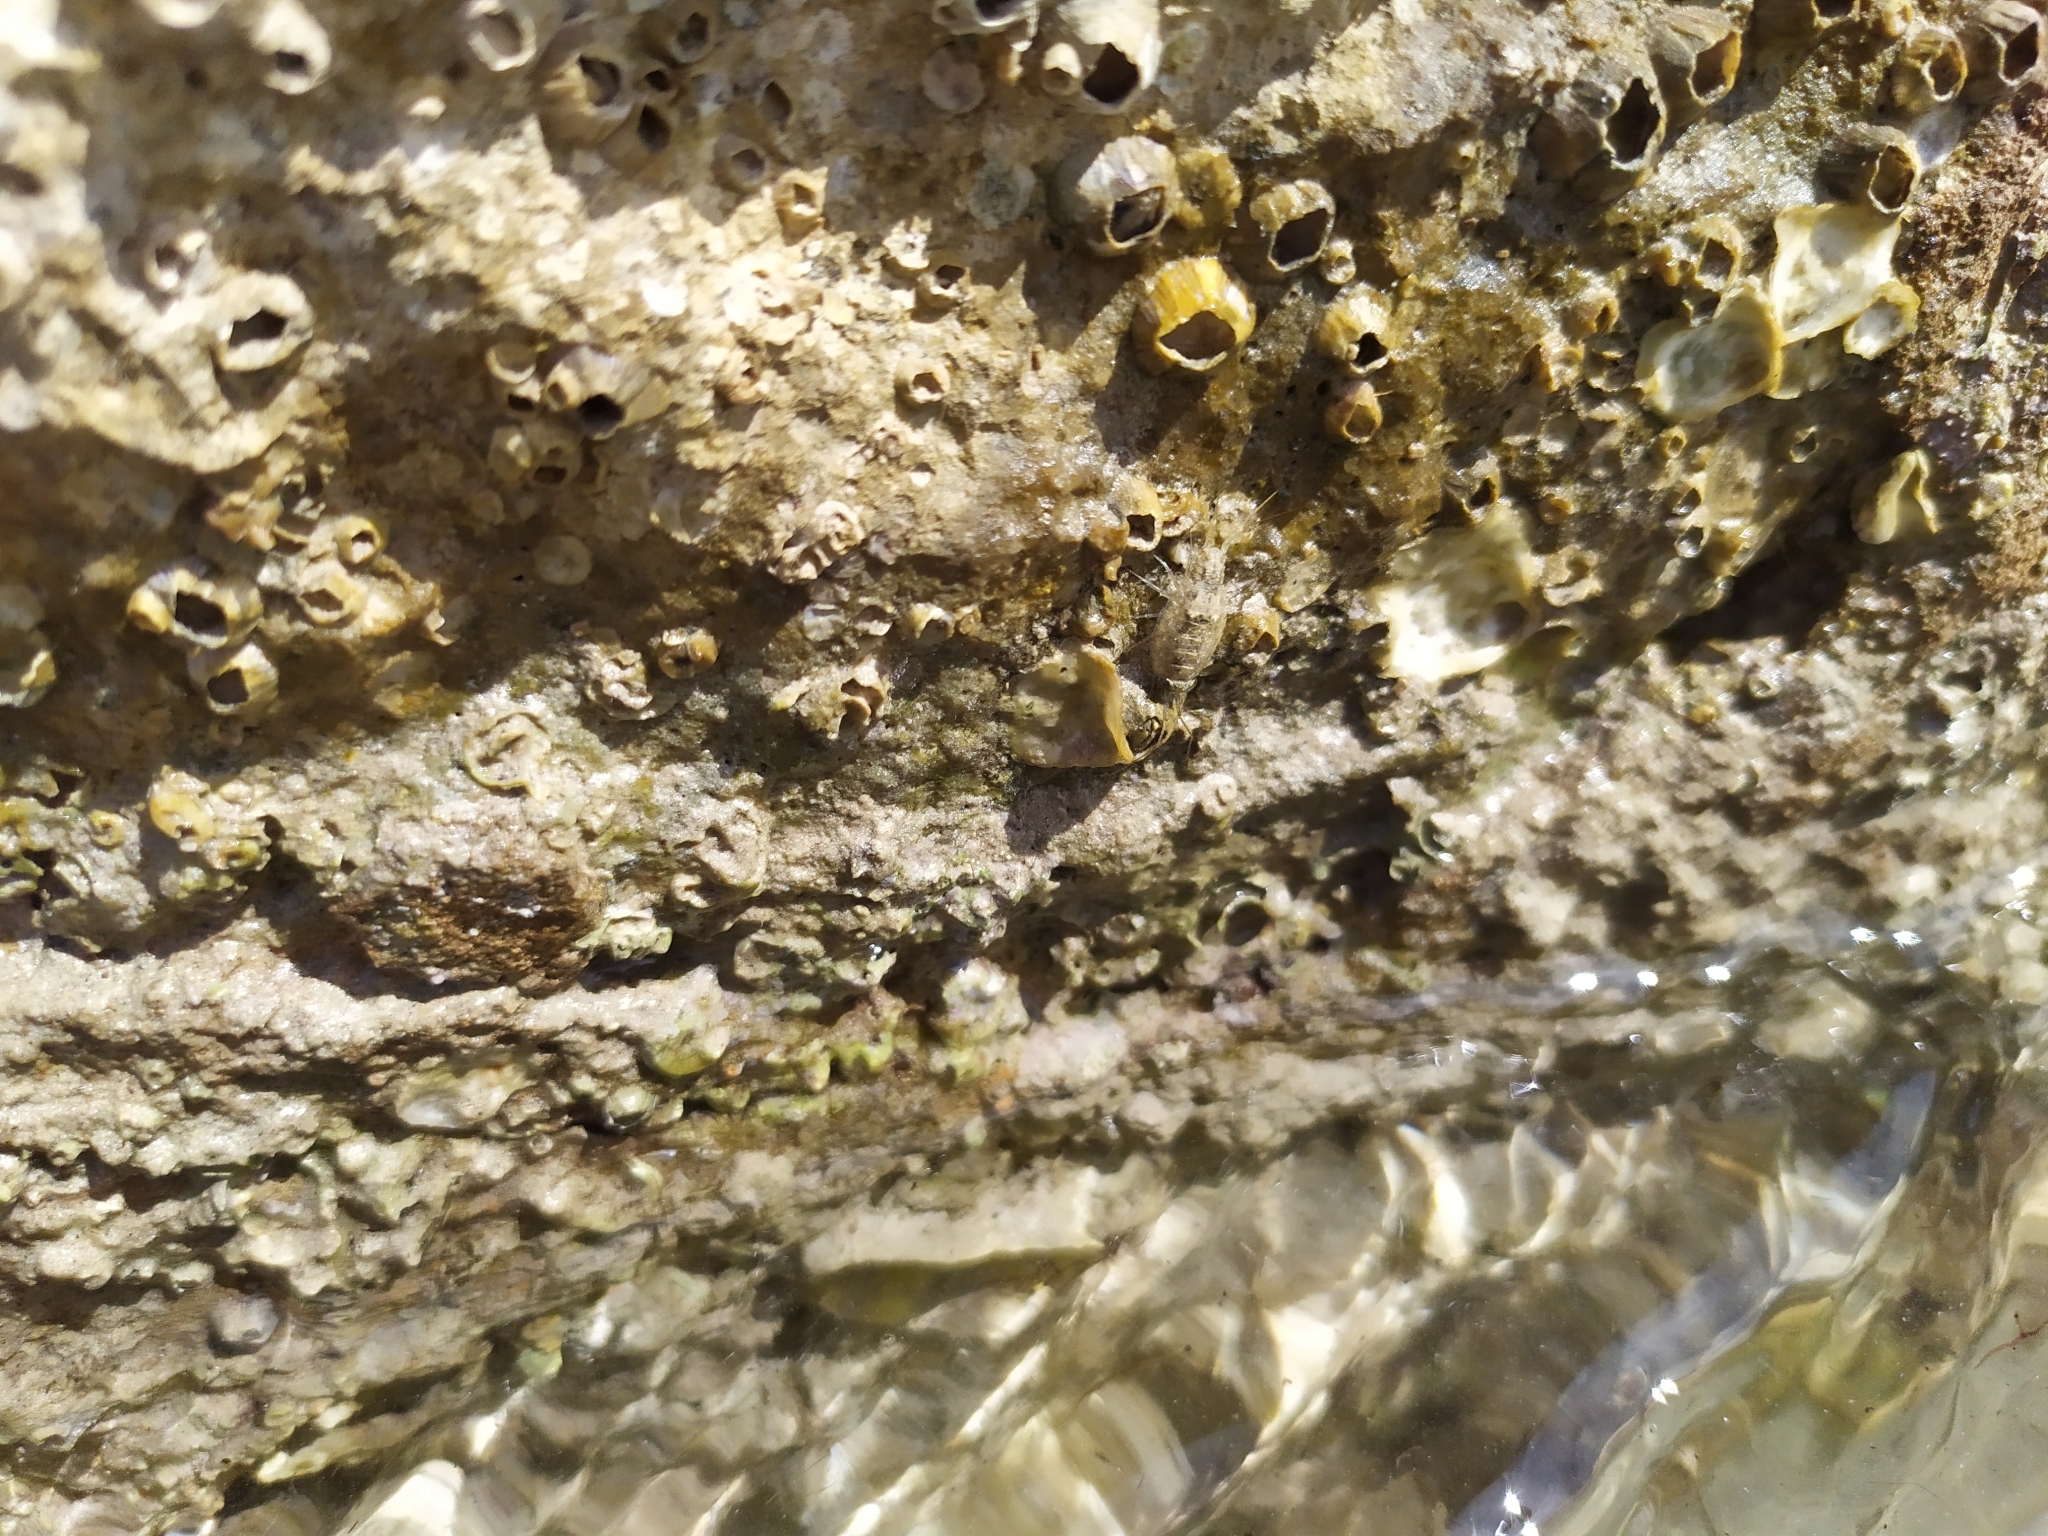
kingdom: Animalia
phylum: Arthropoda
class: Malacostraca
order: Isopoda
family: Ligiidae
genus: Ligia
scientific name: Ligia italica
